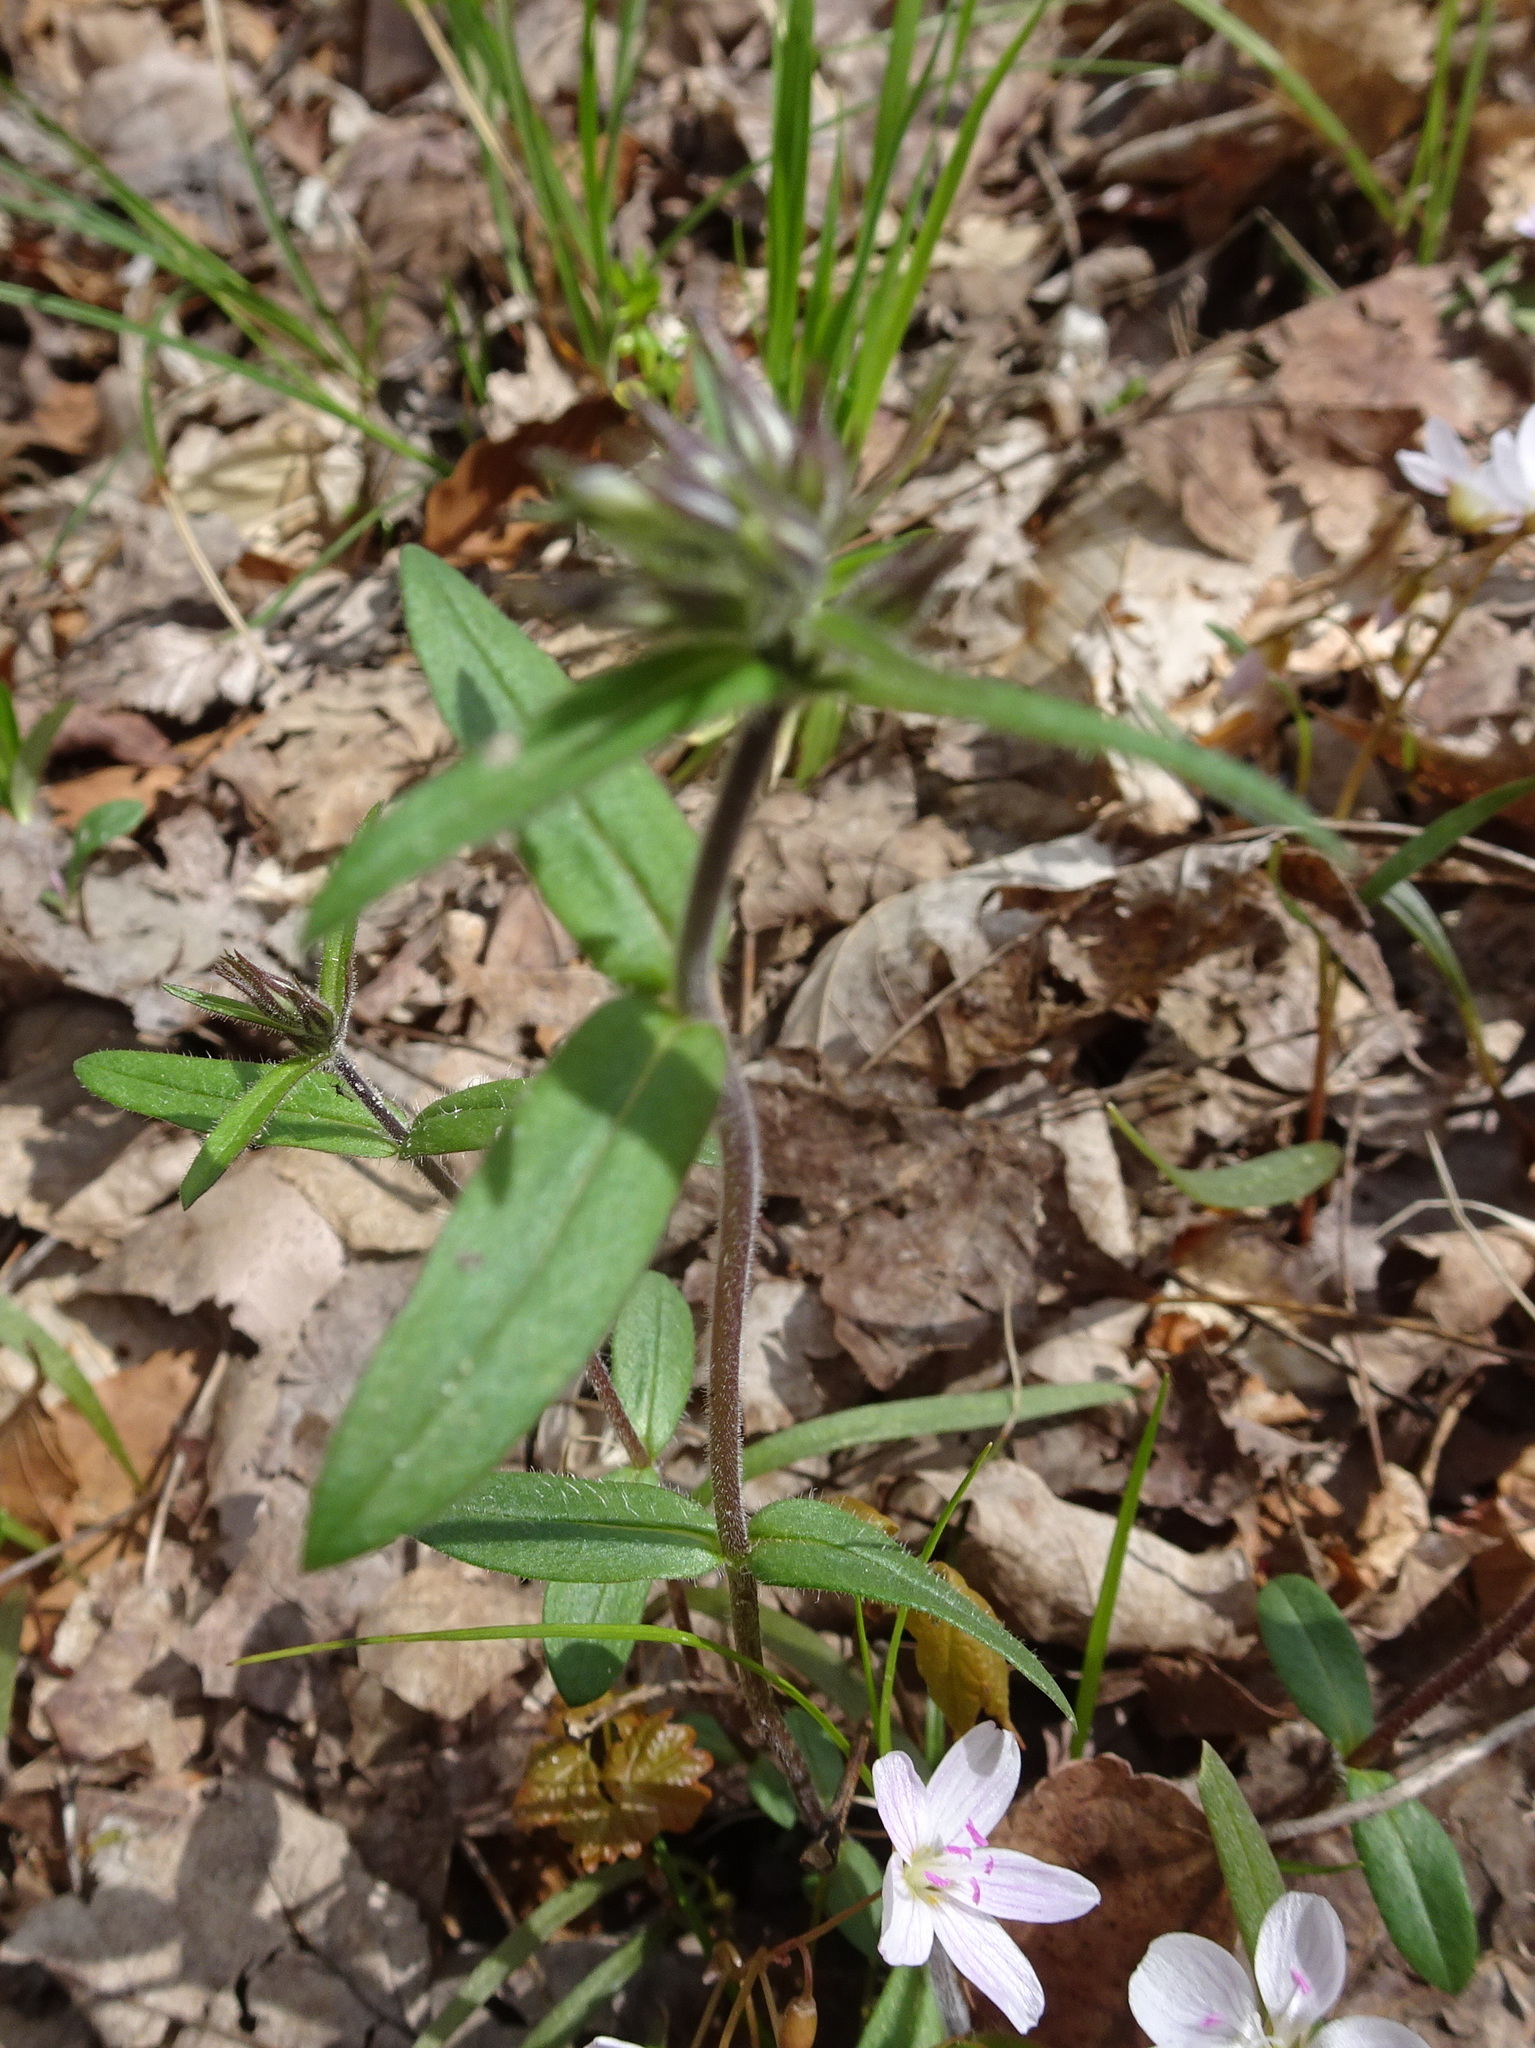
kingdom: Plantae
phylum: Tracheophyta
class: Magnoliopsida
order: Ericales
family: Polemoniaceae
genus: Phlox
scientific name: Phlox divaricata
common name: Blue phlox
